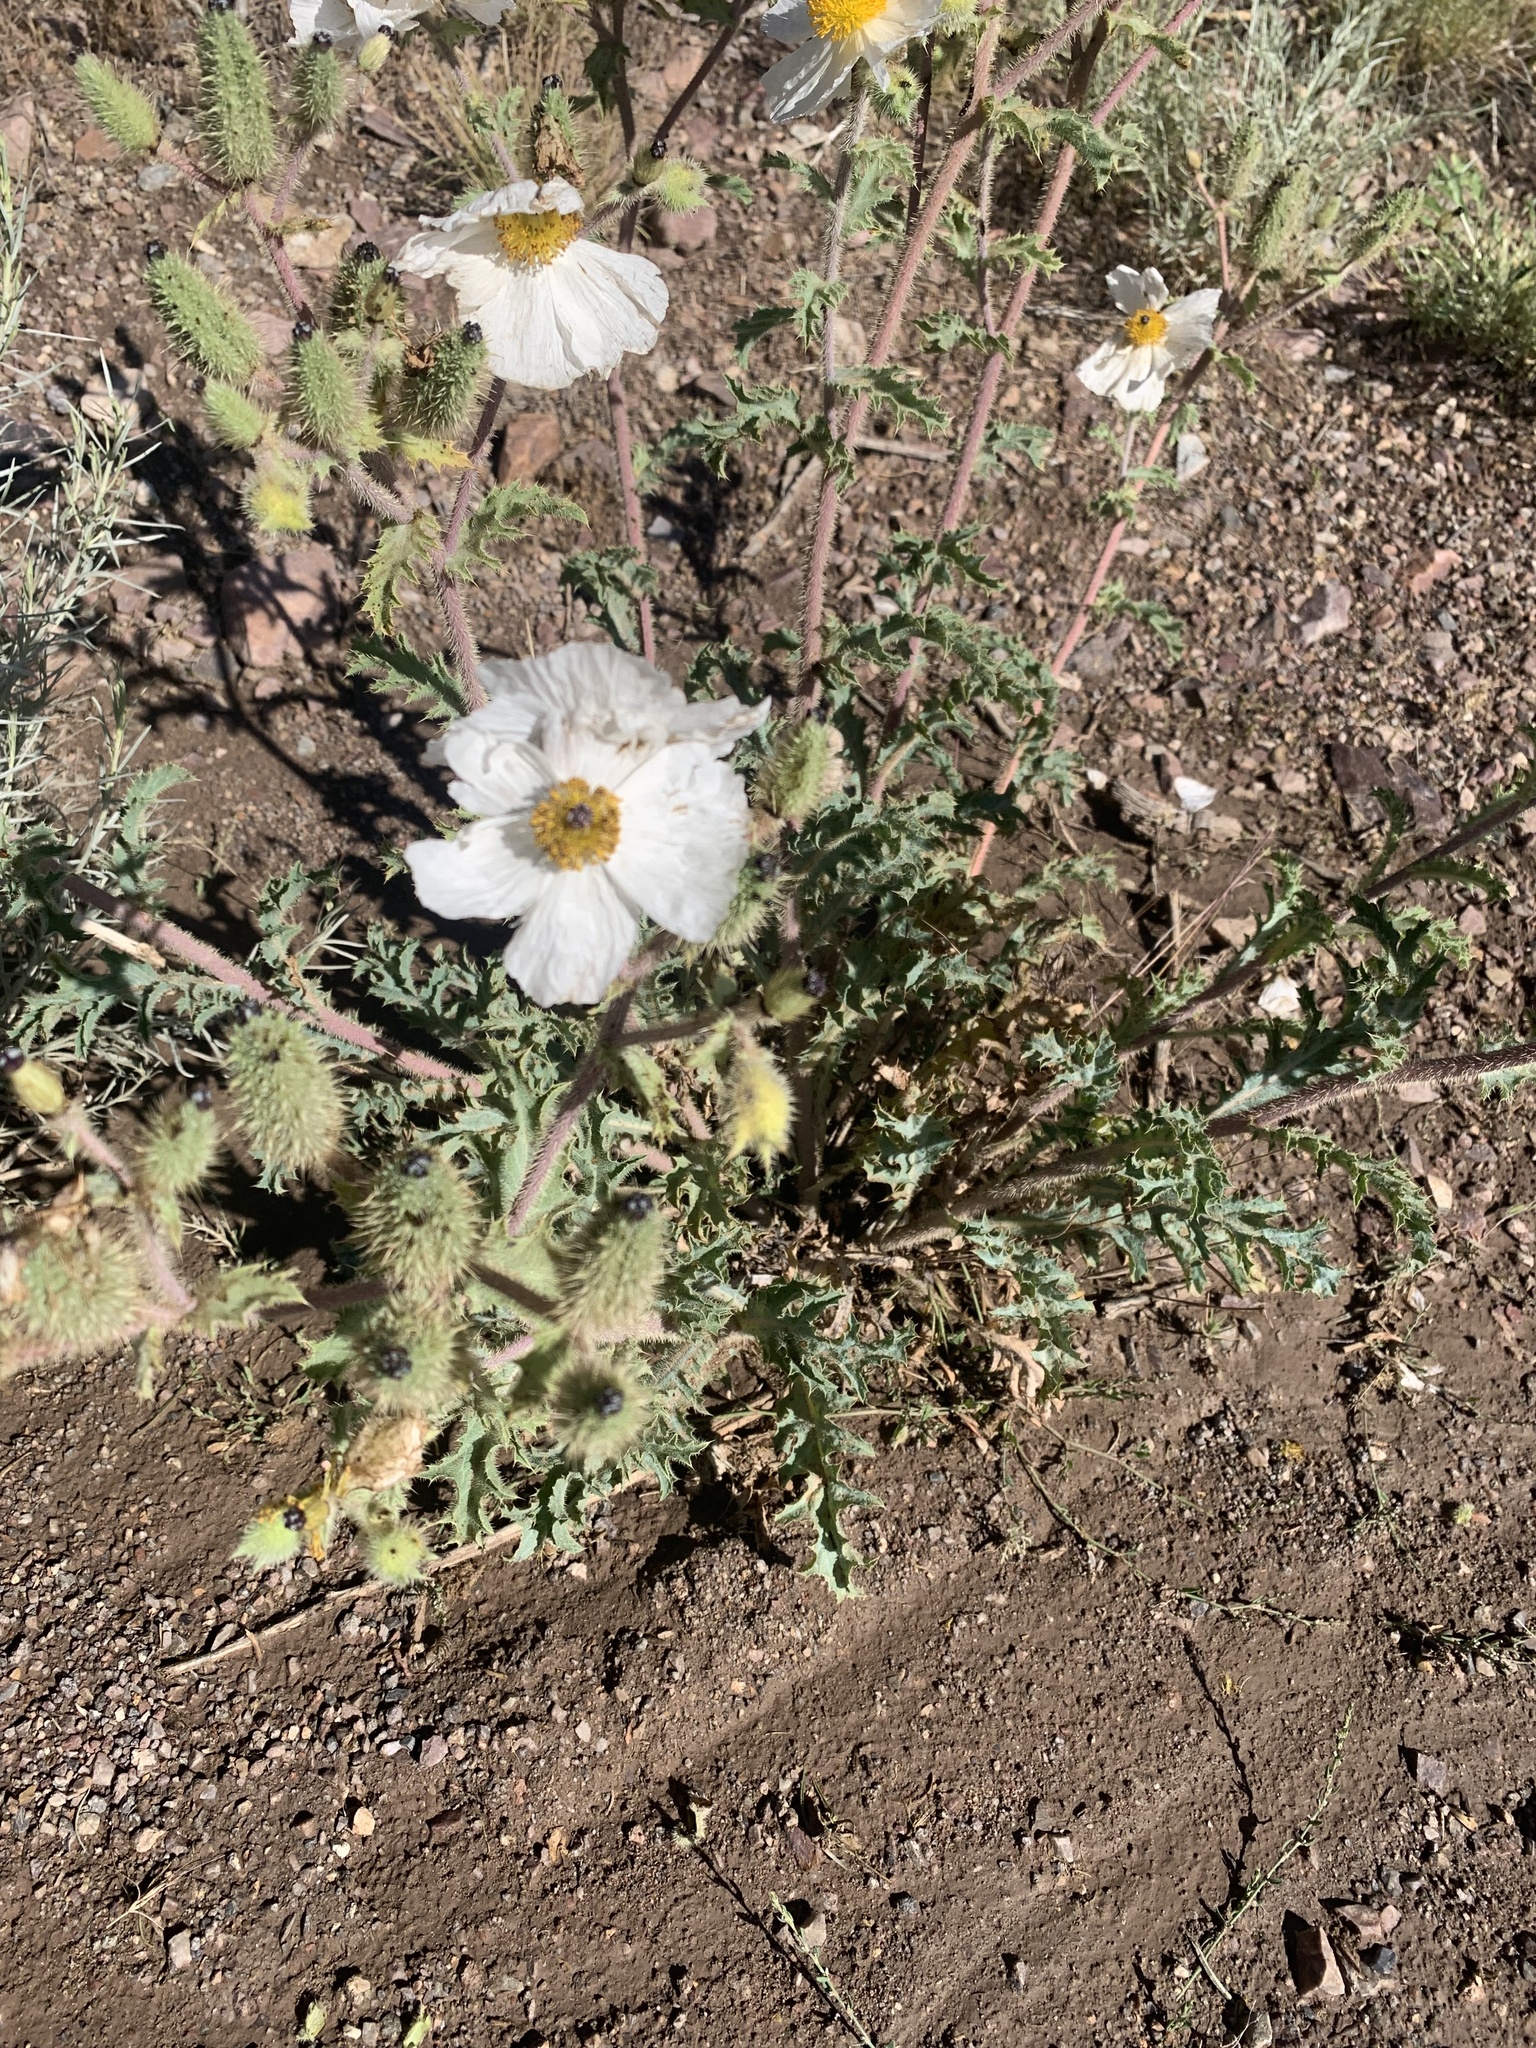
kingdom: Plantae
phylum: Tracheophyta
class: Magnoliopsida
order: Ranunculales
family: Papaveraceae
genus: Argemone
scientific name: Argemone munita
